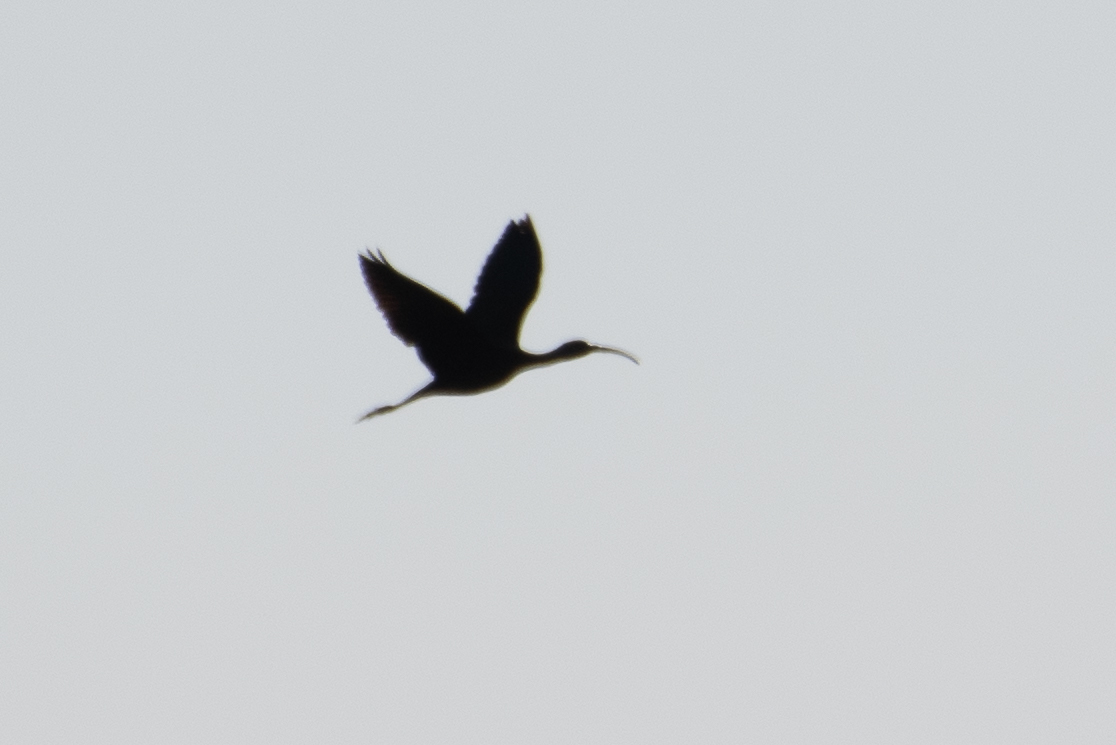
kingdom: Animalia
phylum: Chordata
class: Aves
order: Pelecaniformes
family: Threskiornithidae
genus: Plegadis
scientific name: Plegadis chihi
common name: White-faced ibis
